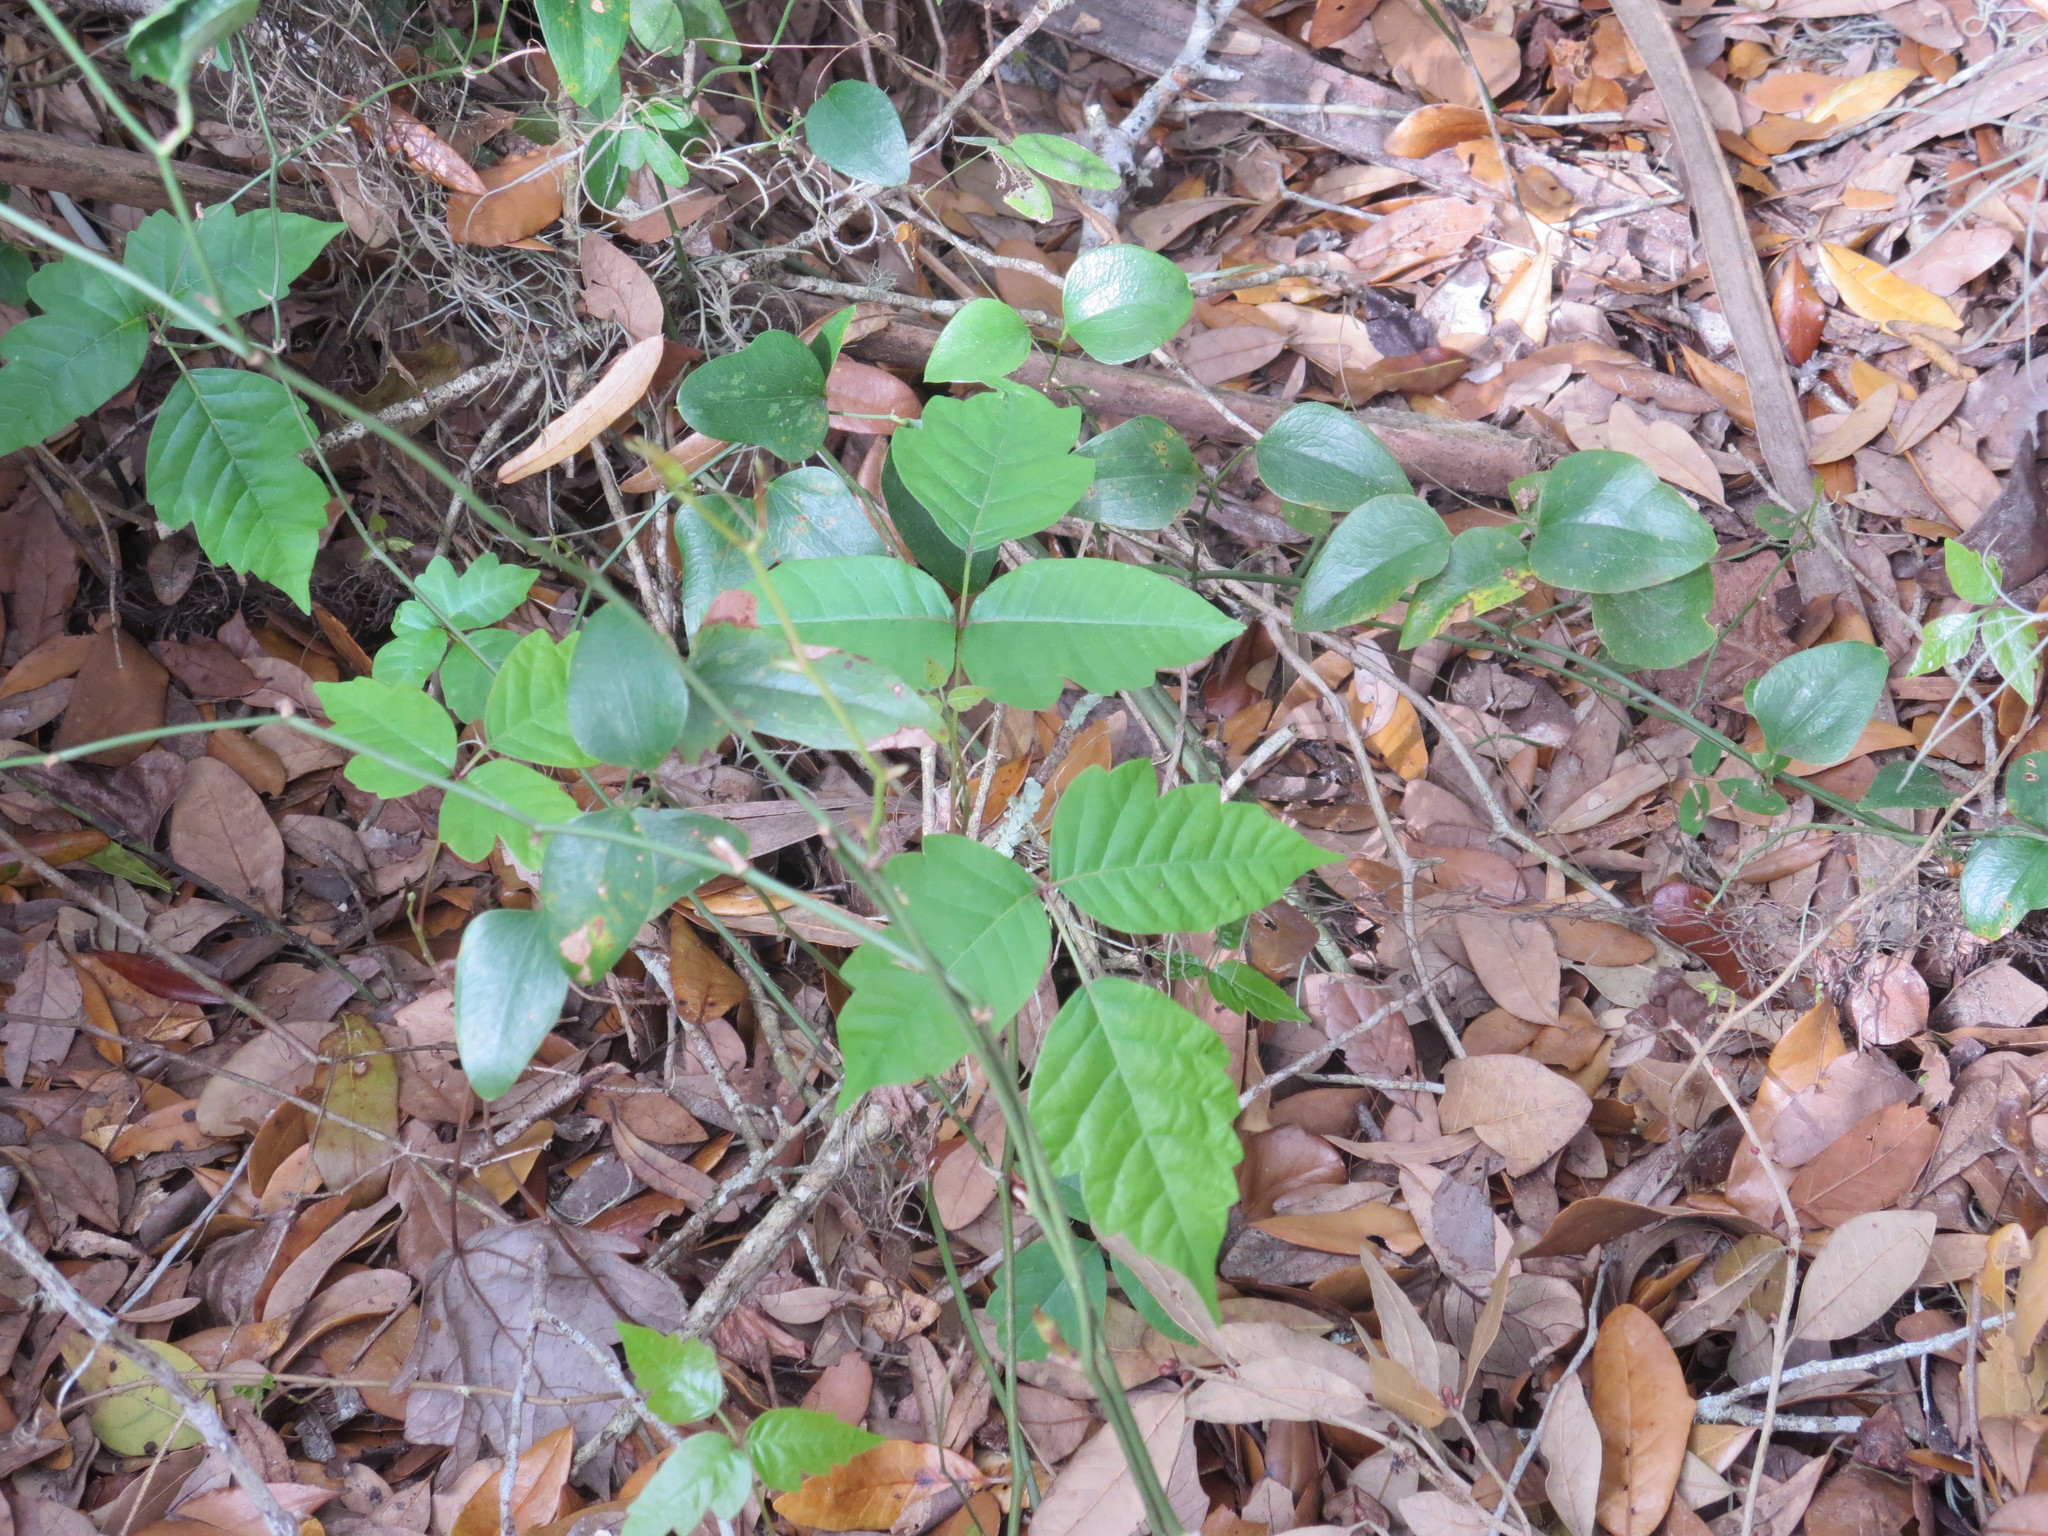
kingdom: Plantae
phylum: Tracheophyta
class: Magnoliopsida
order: Sapindales
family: Anacardiaceae
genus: Toxicodendron
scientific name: Toxicodendron radicans
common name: Poison ivy
